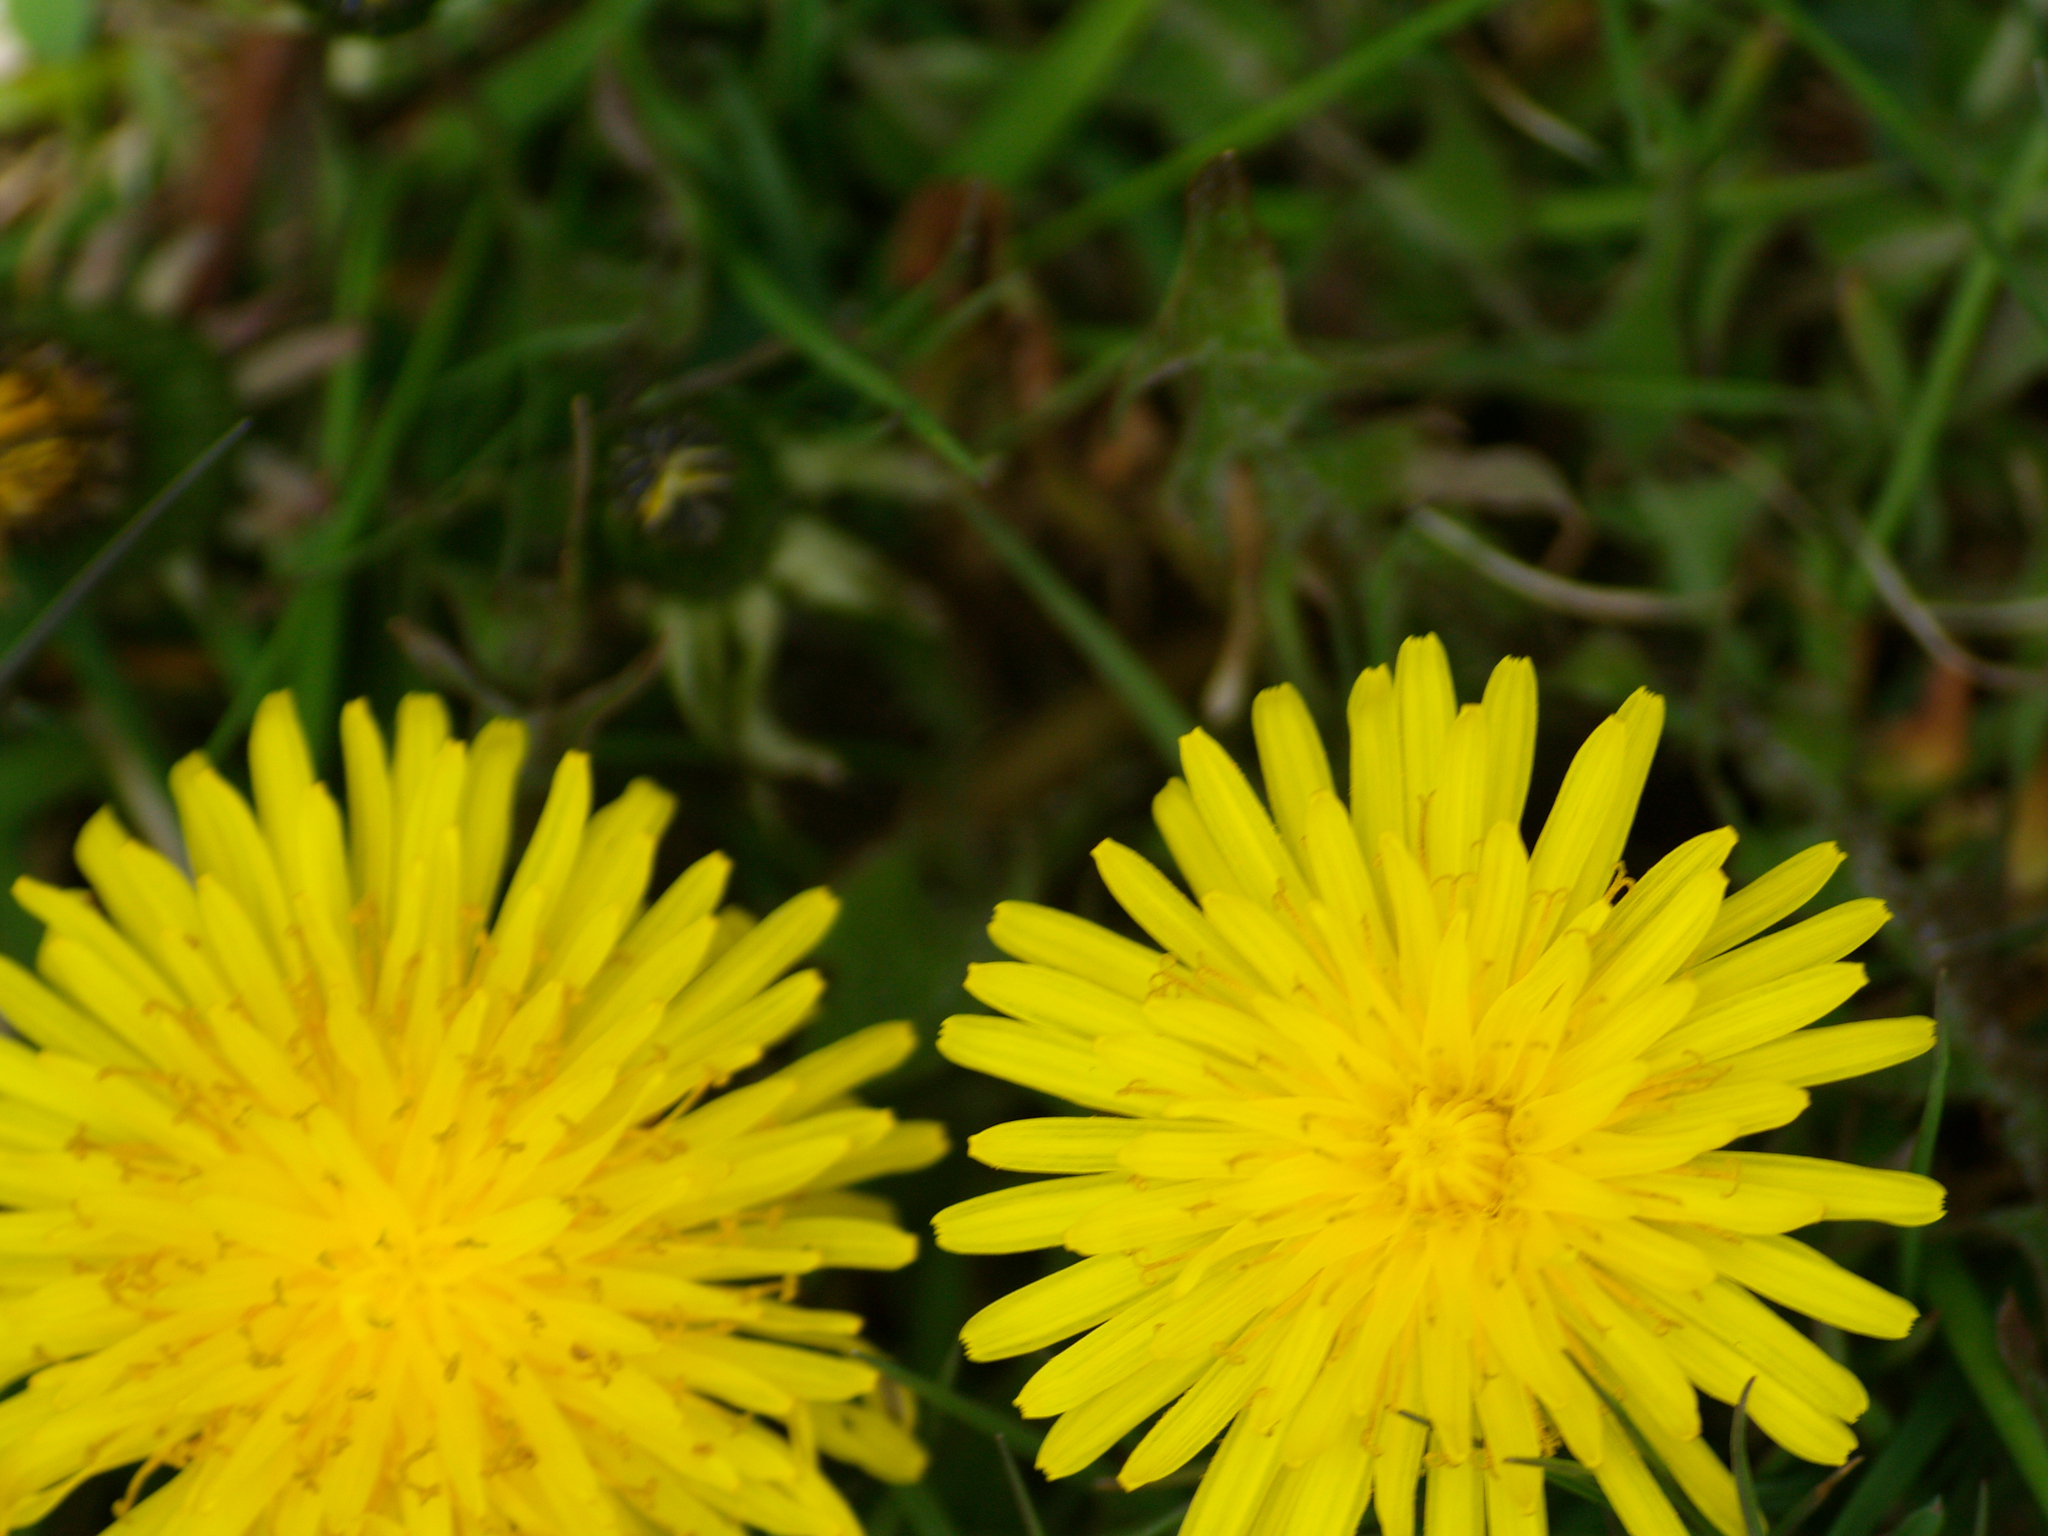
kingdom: Plantae
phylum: Tracheophyta
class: Magnoliopsida
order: Asterales
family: Asteraceae
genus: Taraxacum
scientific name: Taraxacum officinale
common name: Common dandelion
